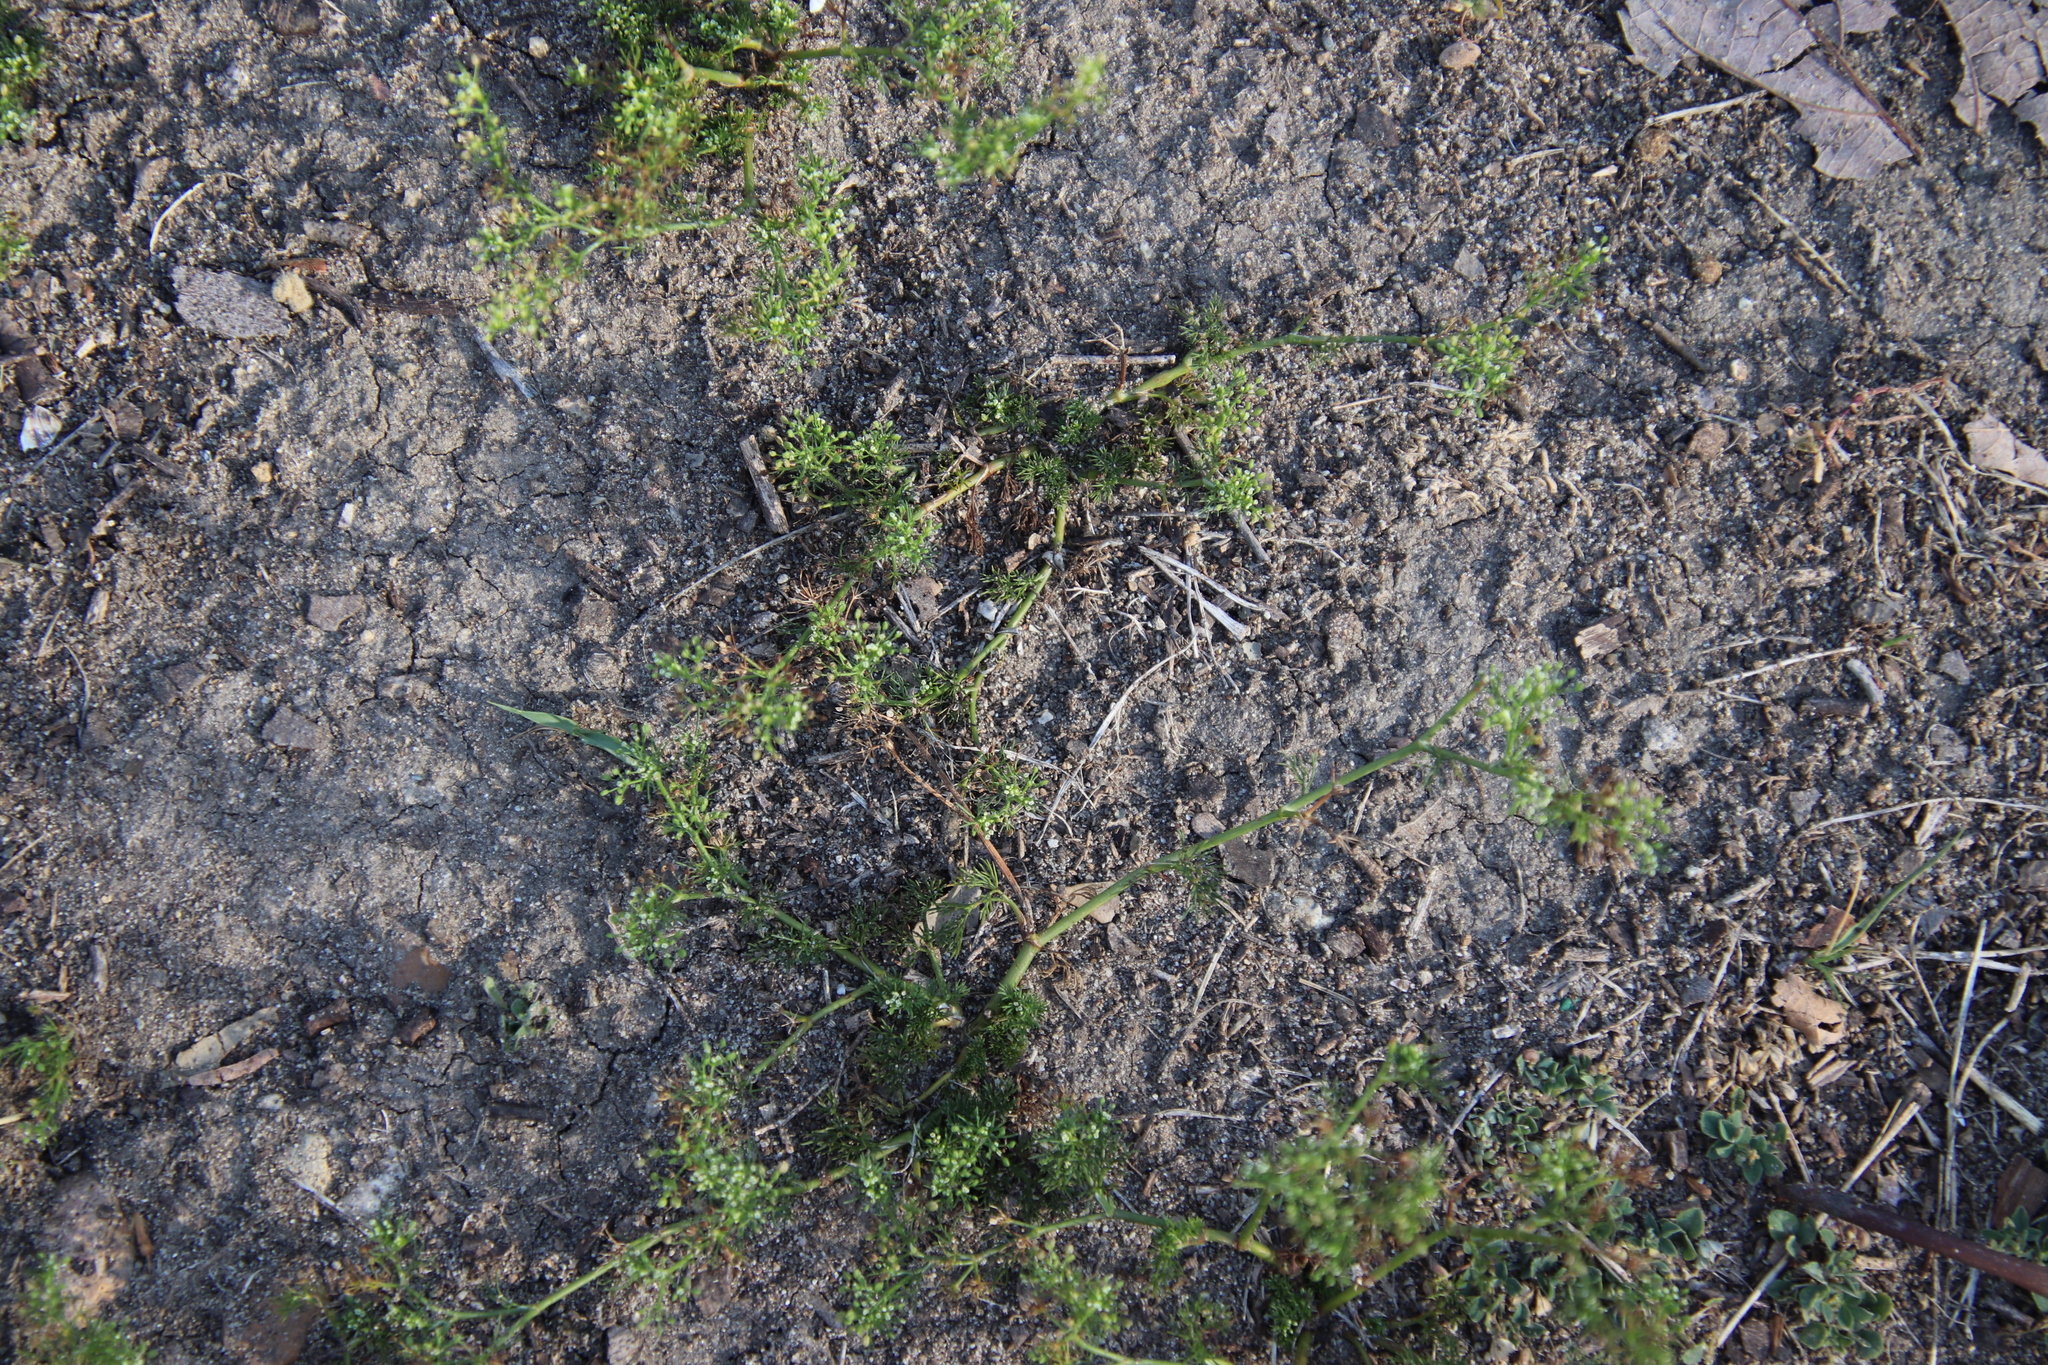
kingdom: Plantae
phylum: Tracheophyta
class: Magnoliopsida
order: Apiales
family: Apiaceae
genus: Cyclospermum
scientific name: Cyclospermum leptophyllum
